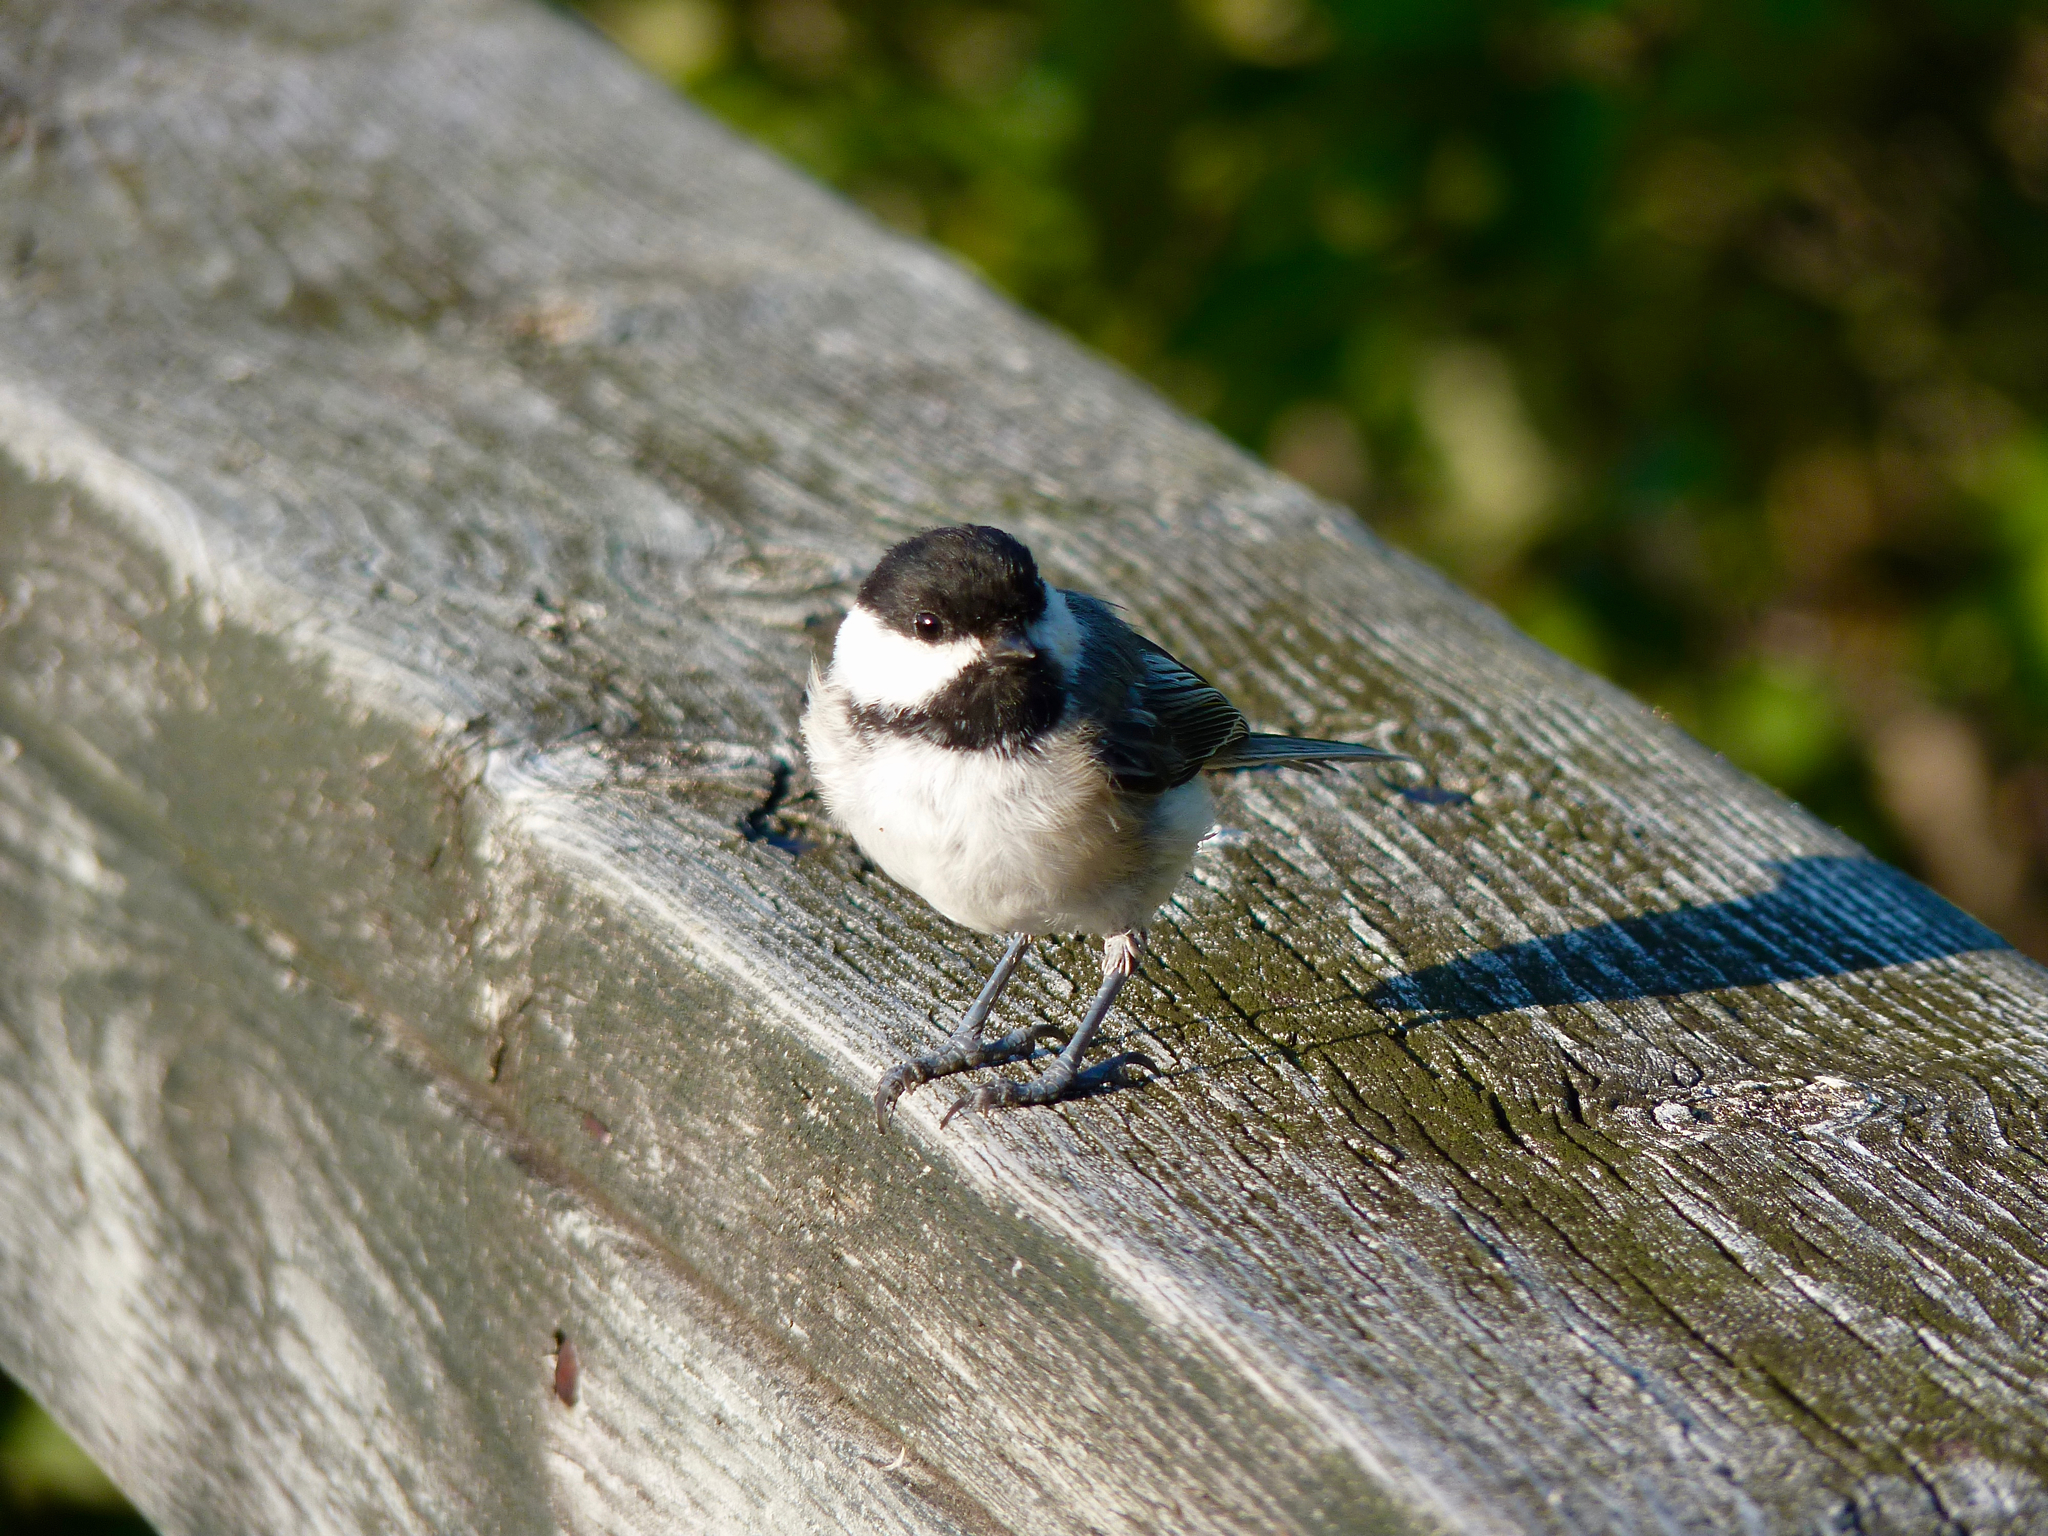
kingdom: Animalia
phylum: Chordata
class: Aves
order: Passeriformes
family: Paridae
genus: Poecile
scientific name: Poecile atricapillus
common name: Black-capped chickadee
